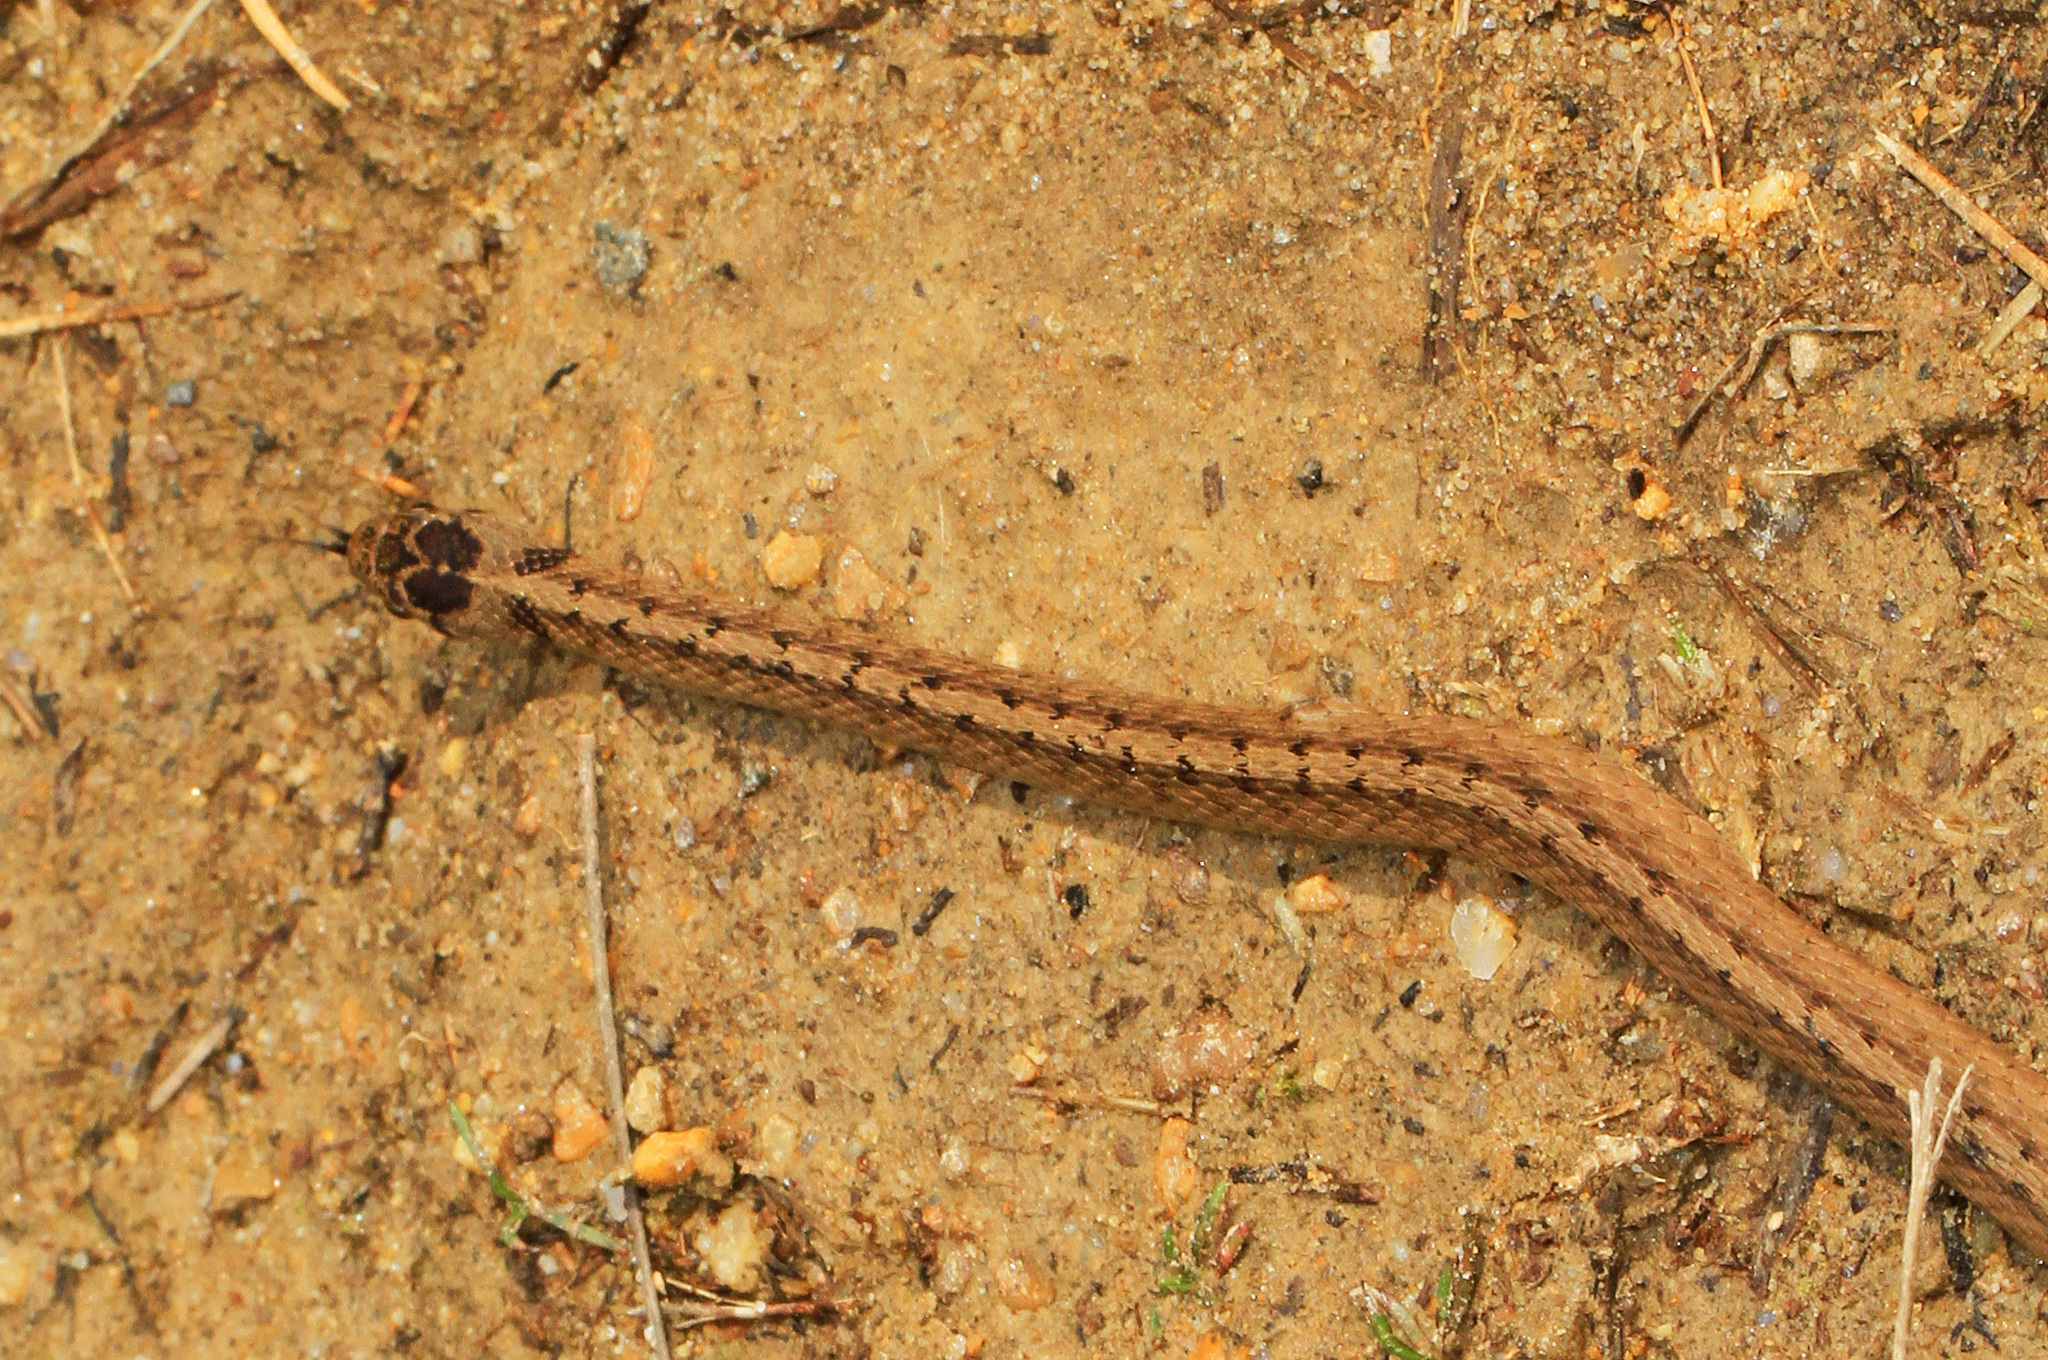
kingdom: Animalia
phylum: Chordata
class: Squamata
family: Colubridae
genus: Storeria
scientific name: Storeria dekayi
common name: (dekay’s) brown snake
